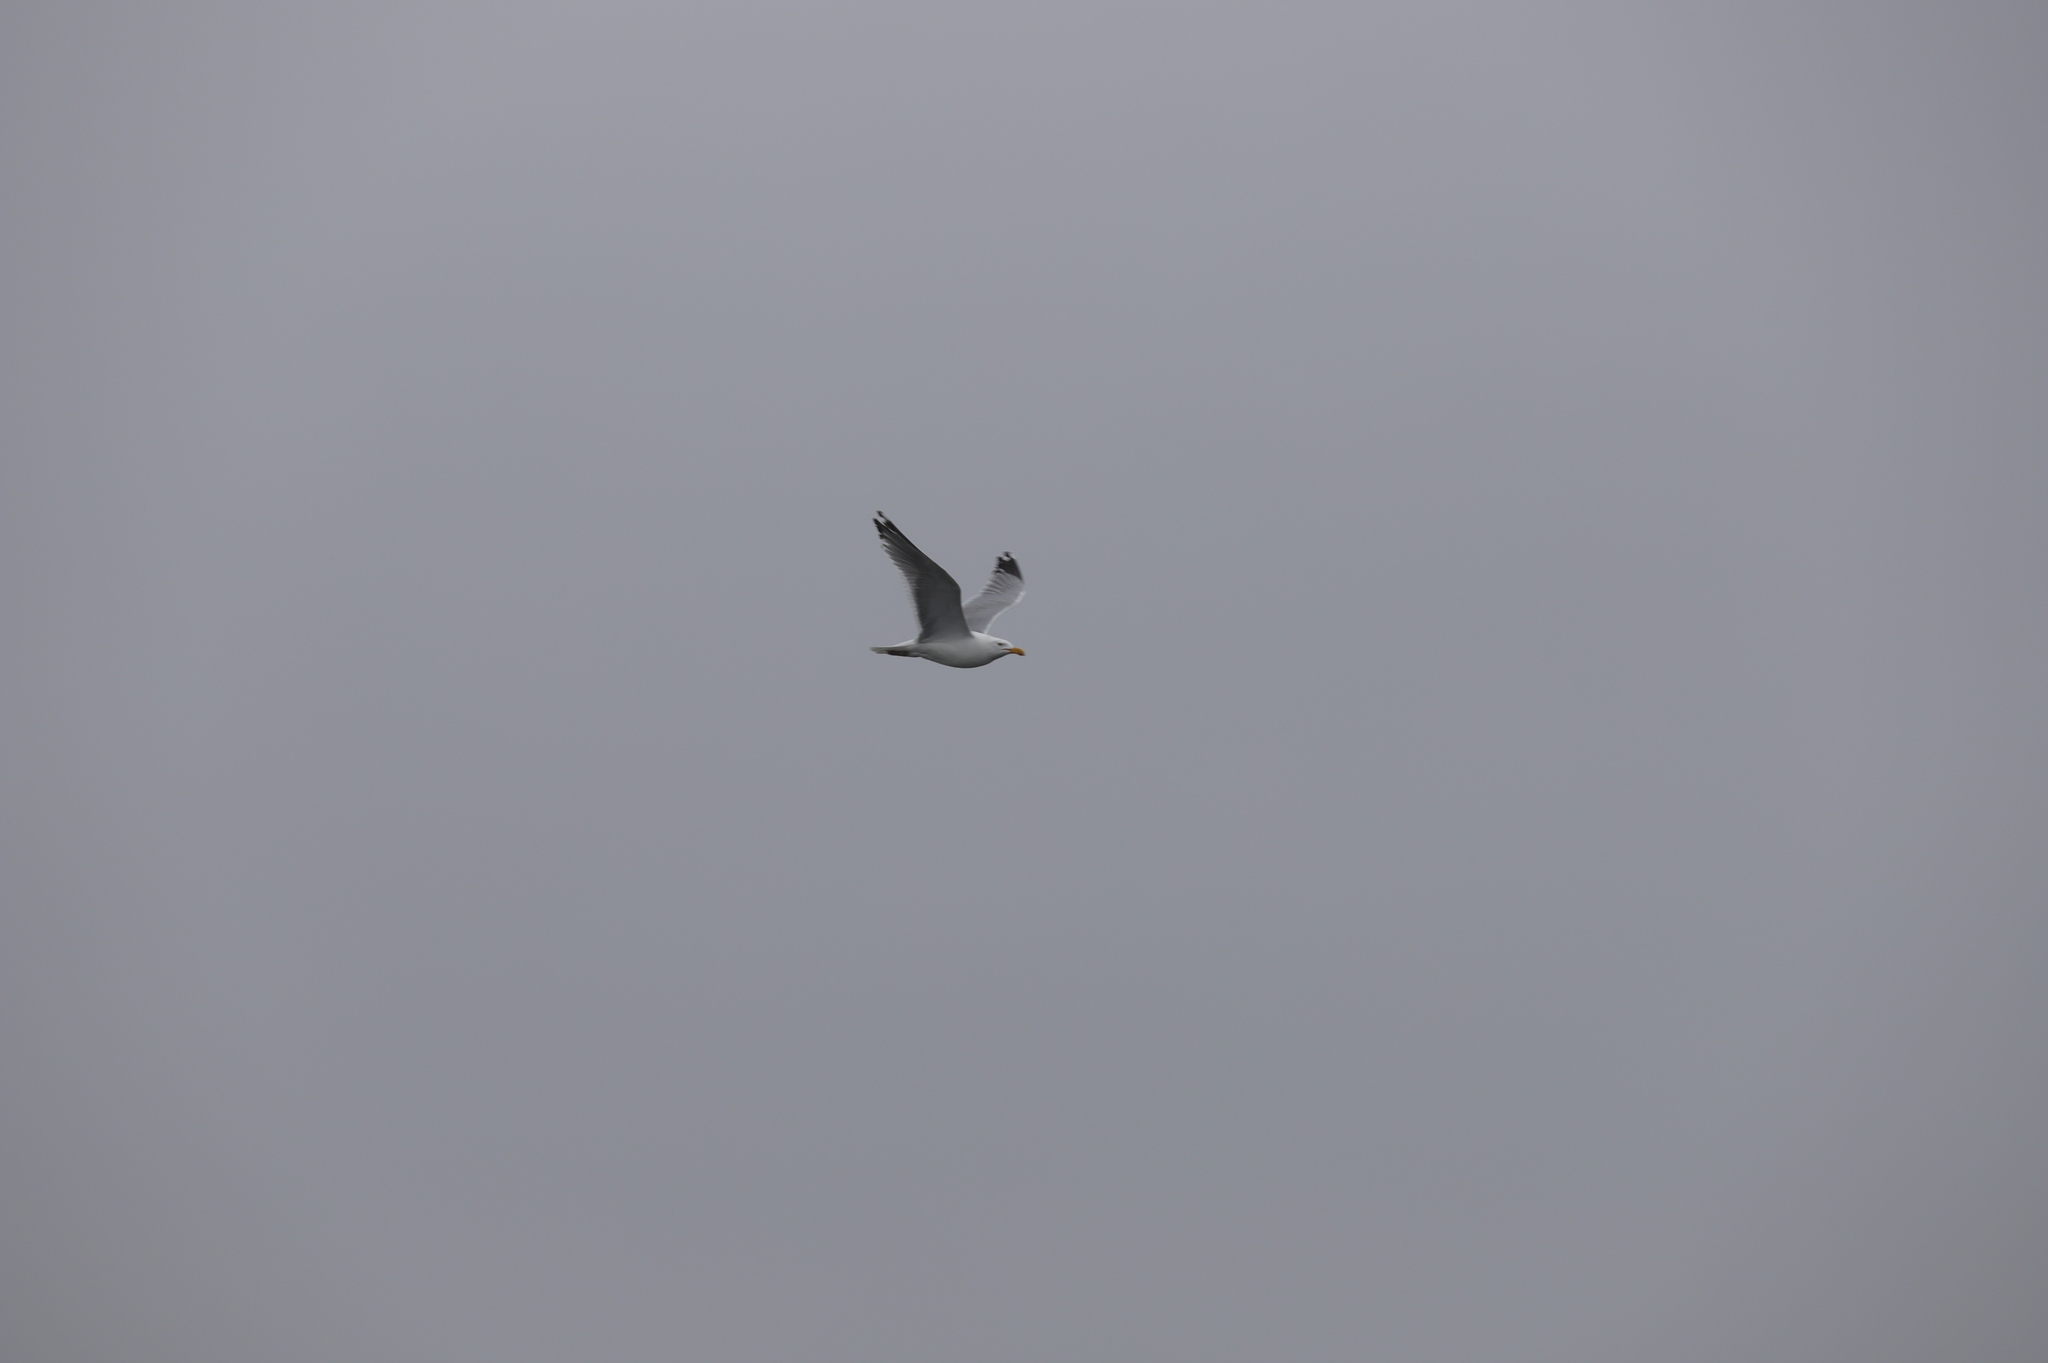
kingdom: Animalia
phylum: Chordata
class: Aves
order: Charadriiformes
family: Laridae
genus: Larus
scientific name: Larus argentatus
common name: Herring gull
